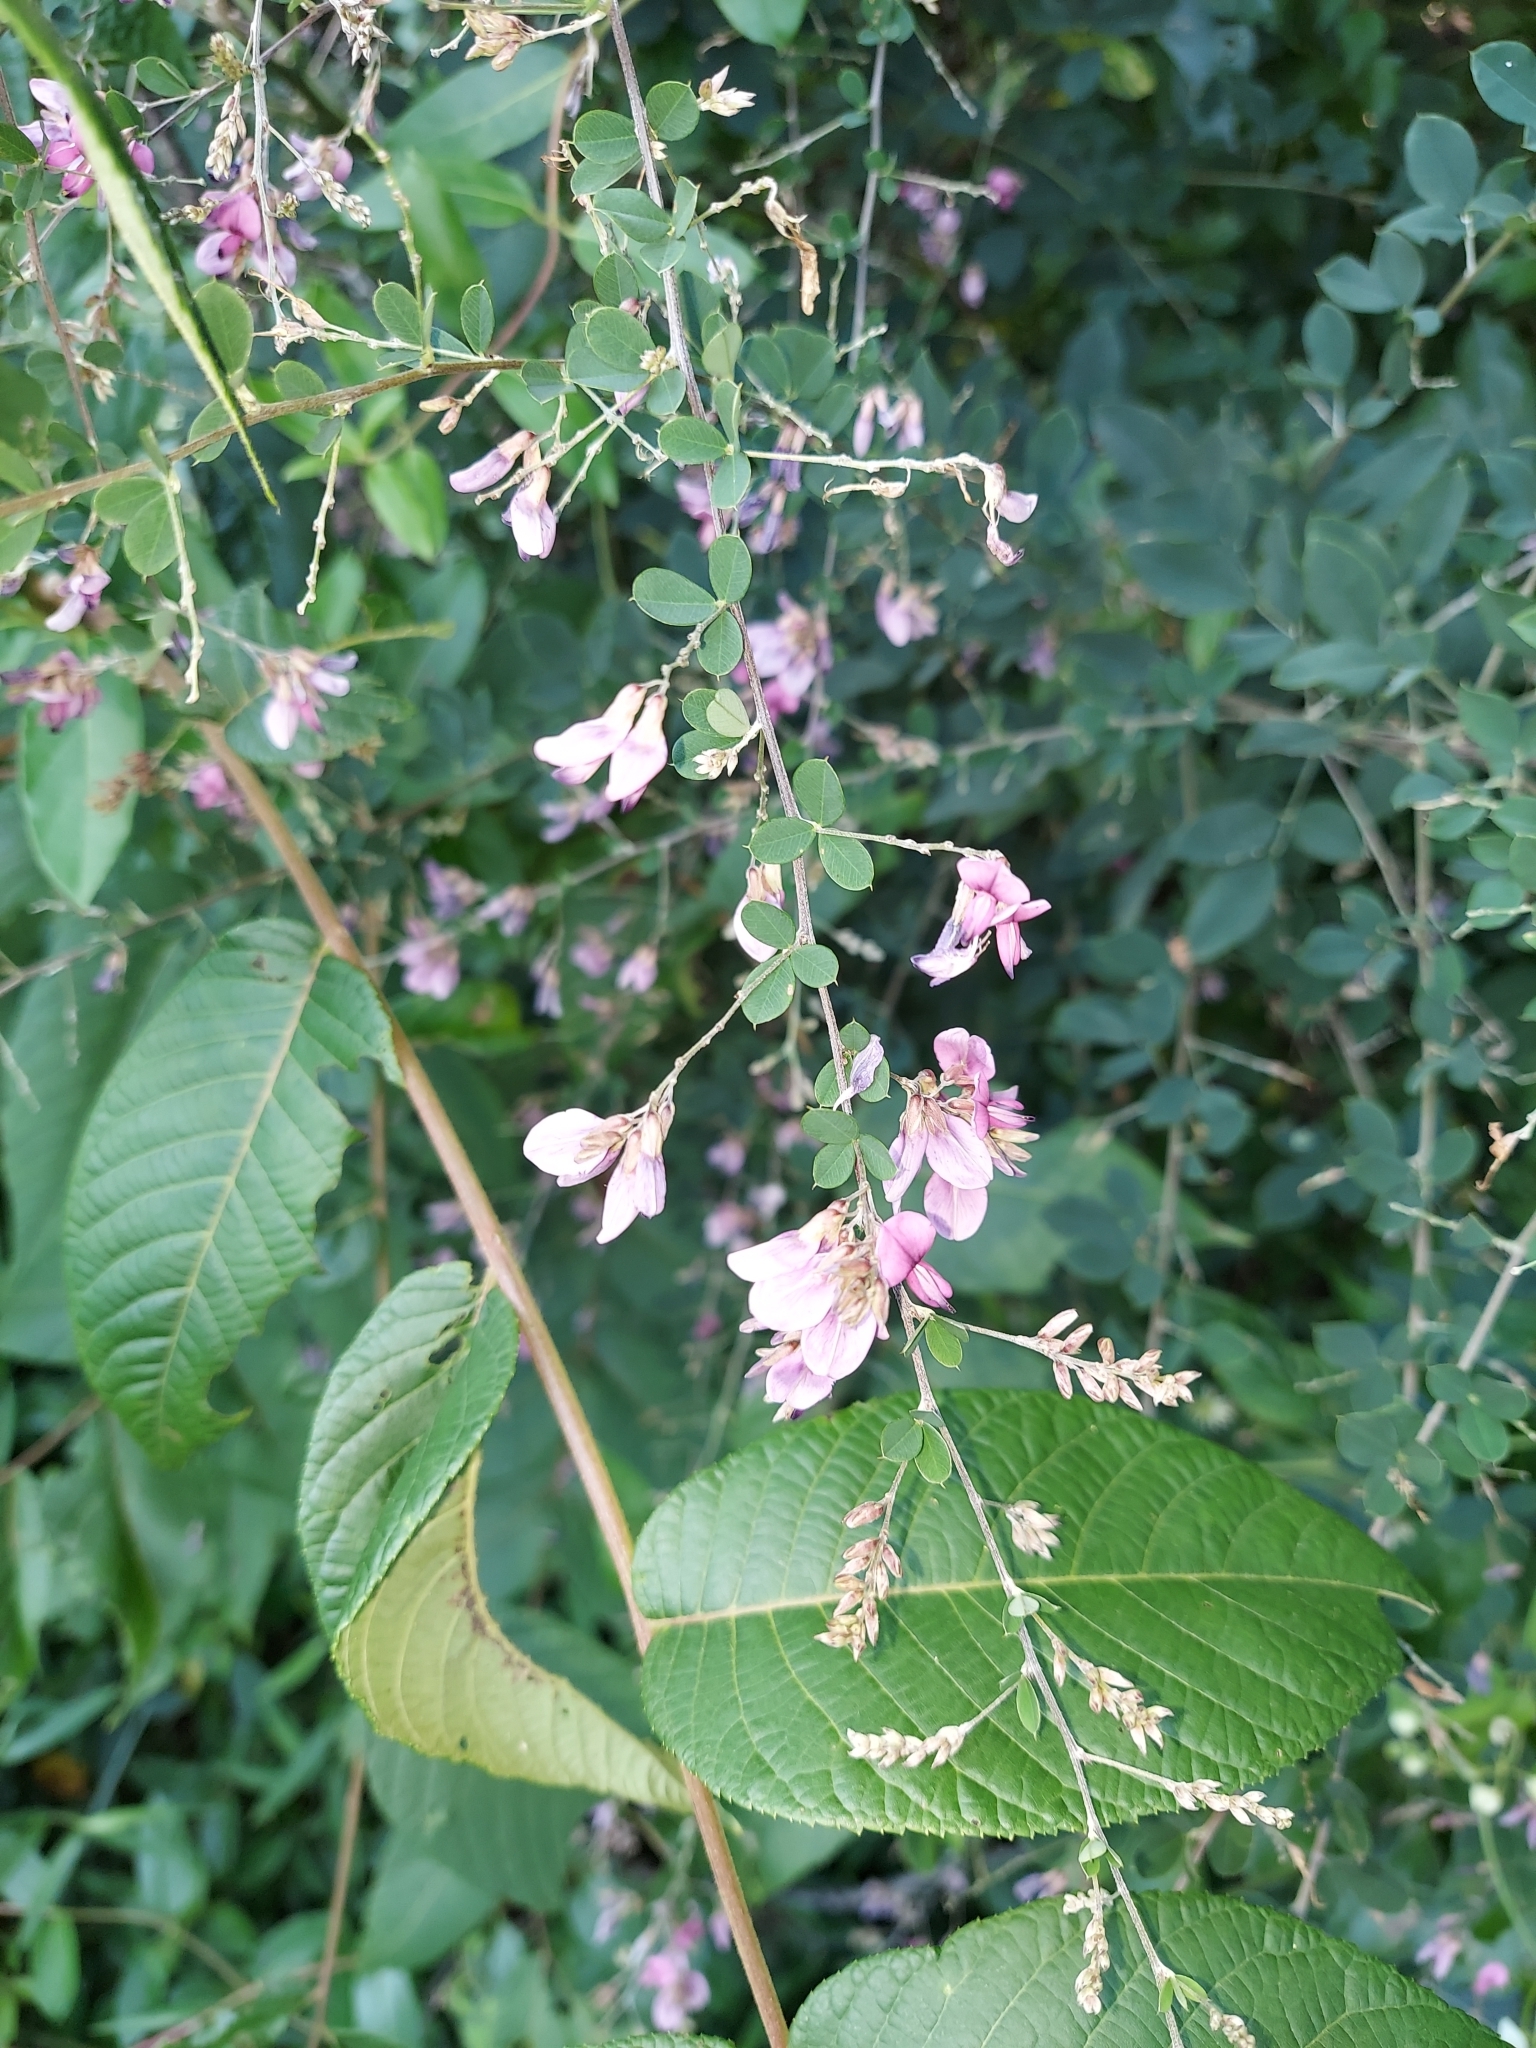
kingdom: Plantae
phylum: Tracheophyta
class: Magnoliopsida
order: Fabales
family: Fabaceae
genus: Lespedeza
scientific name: Lespedeza bicolor
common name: Shrub lespedeza
